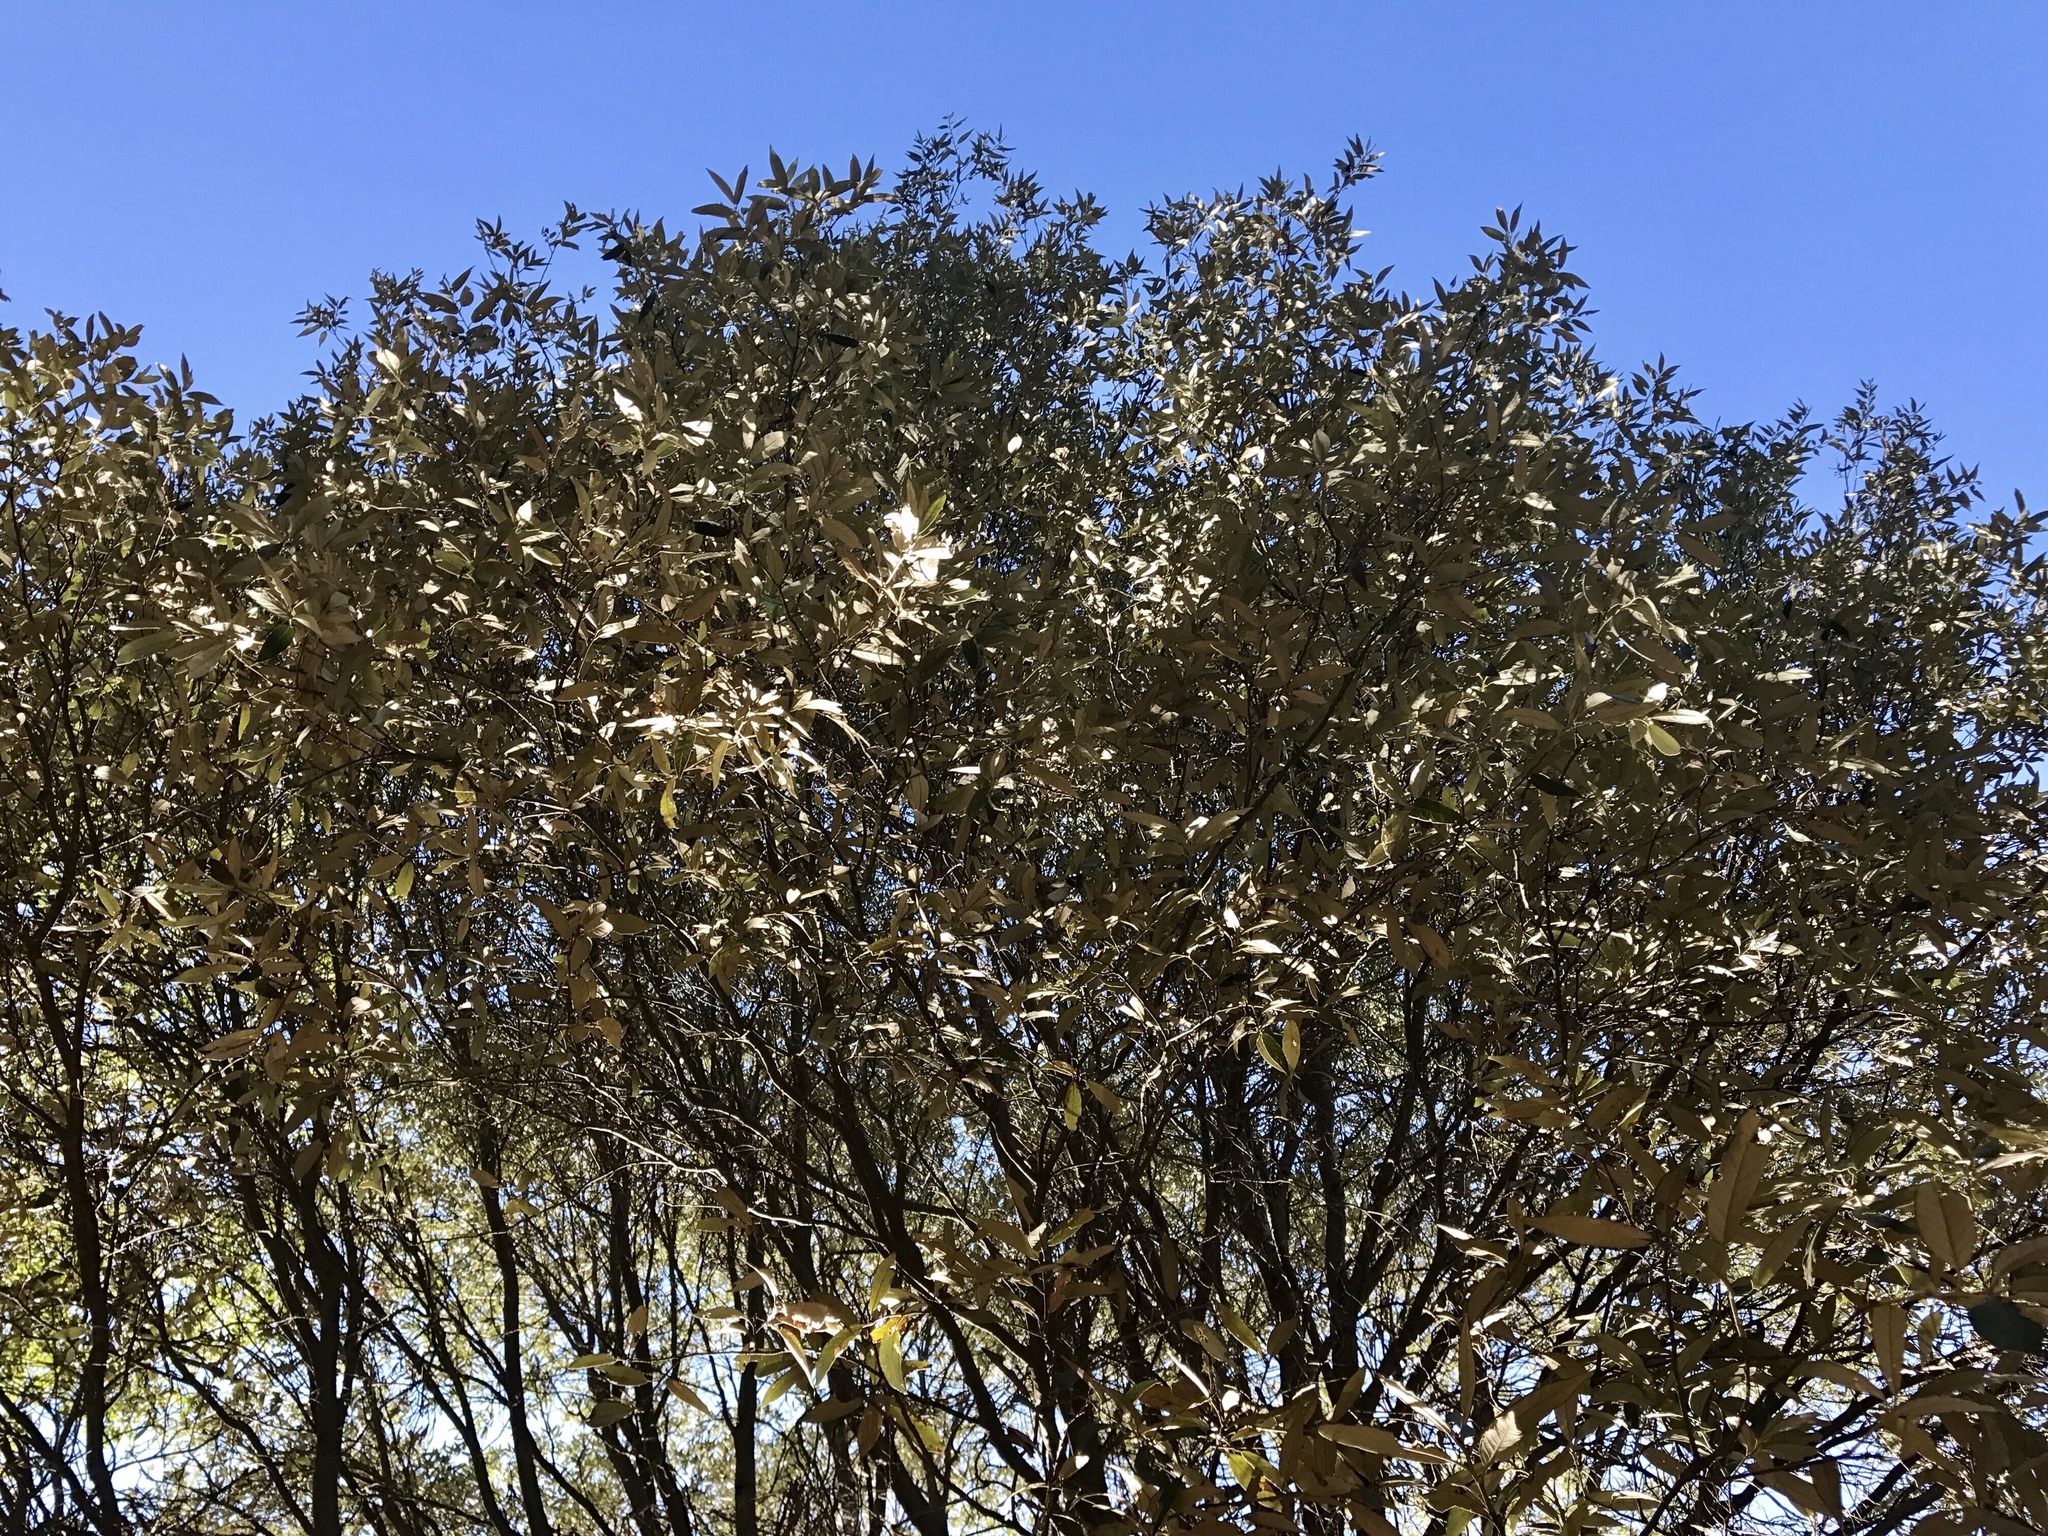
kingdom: Plantae
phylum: Tracheophyta
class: Magnoliopsida
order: Fagales
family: Fagaceae
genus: Quercus
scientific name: Quercus hypoleucoides
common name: Silverleaf oak
